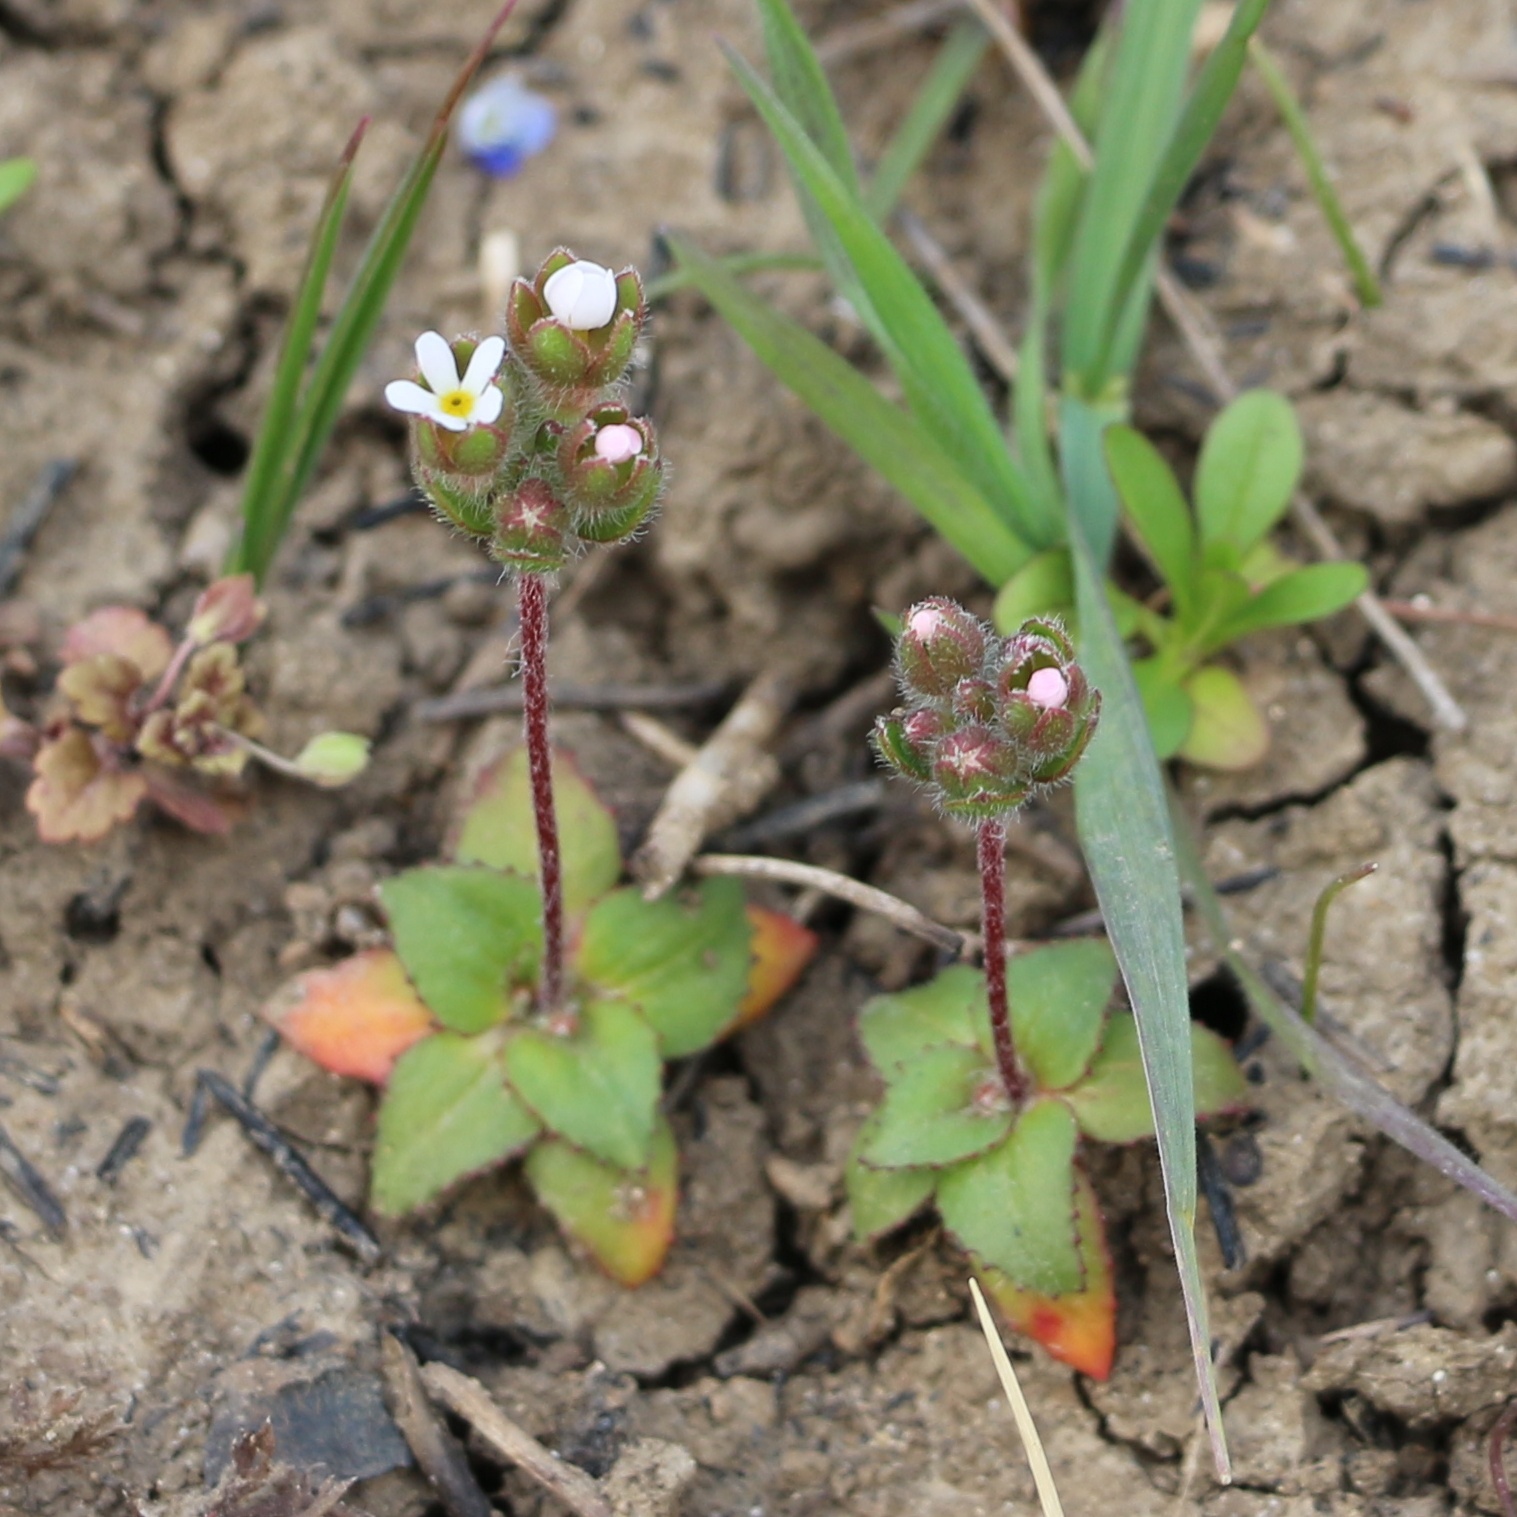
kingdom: Plantae
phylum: Tracheophyta
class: Magnoliopsida
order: Ericales
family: Primulaceae
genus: Androsace
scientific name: Androsace maxima
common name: Annual androsace
